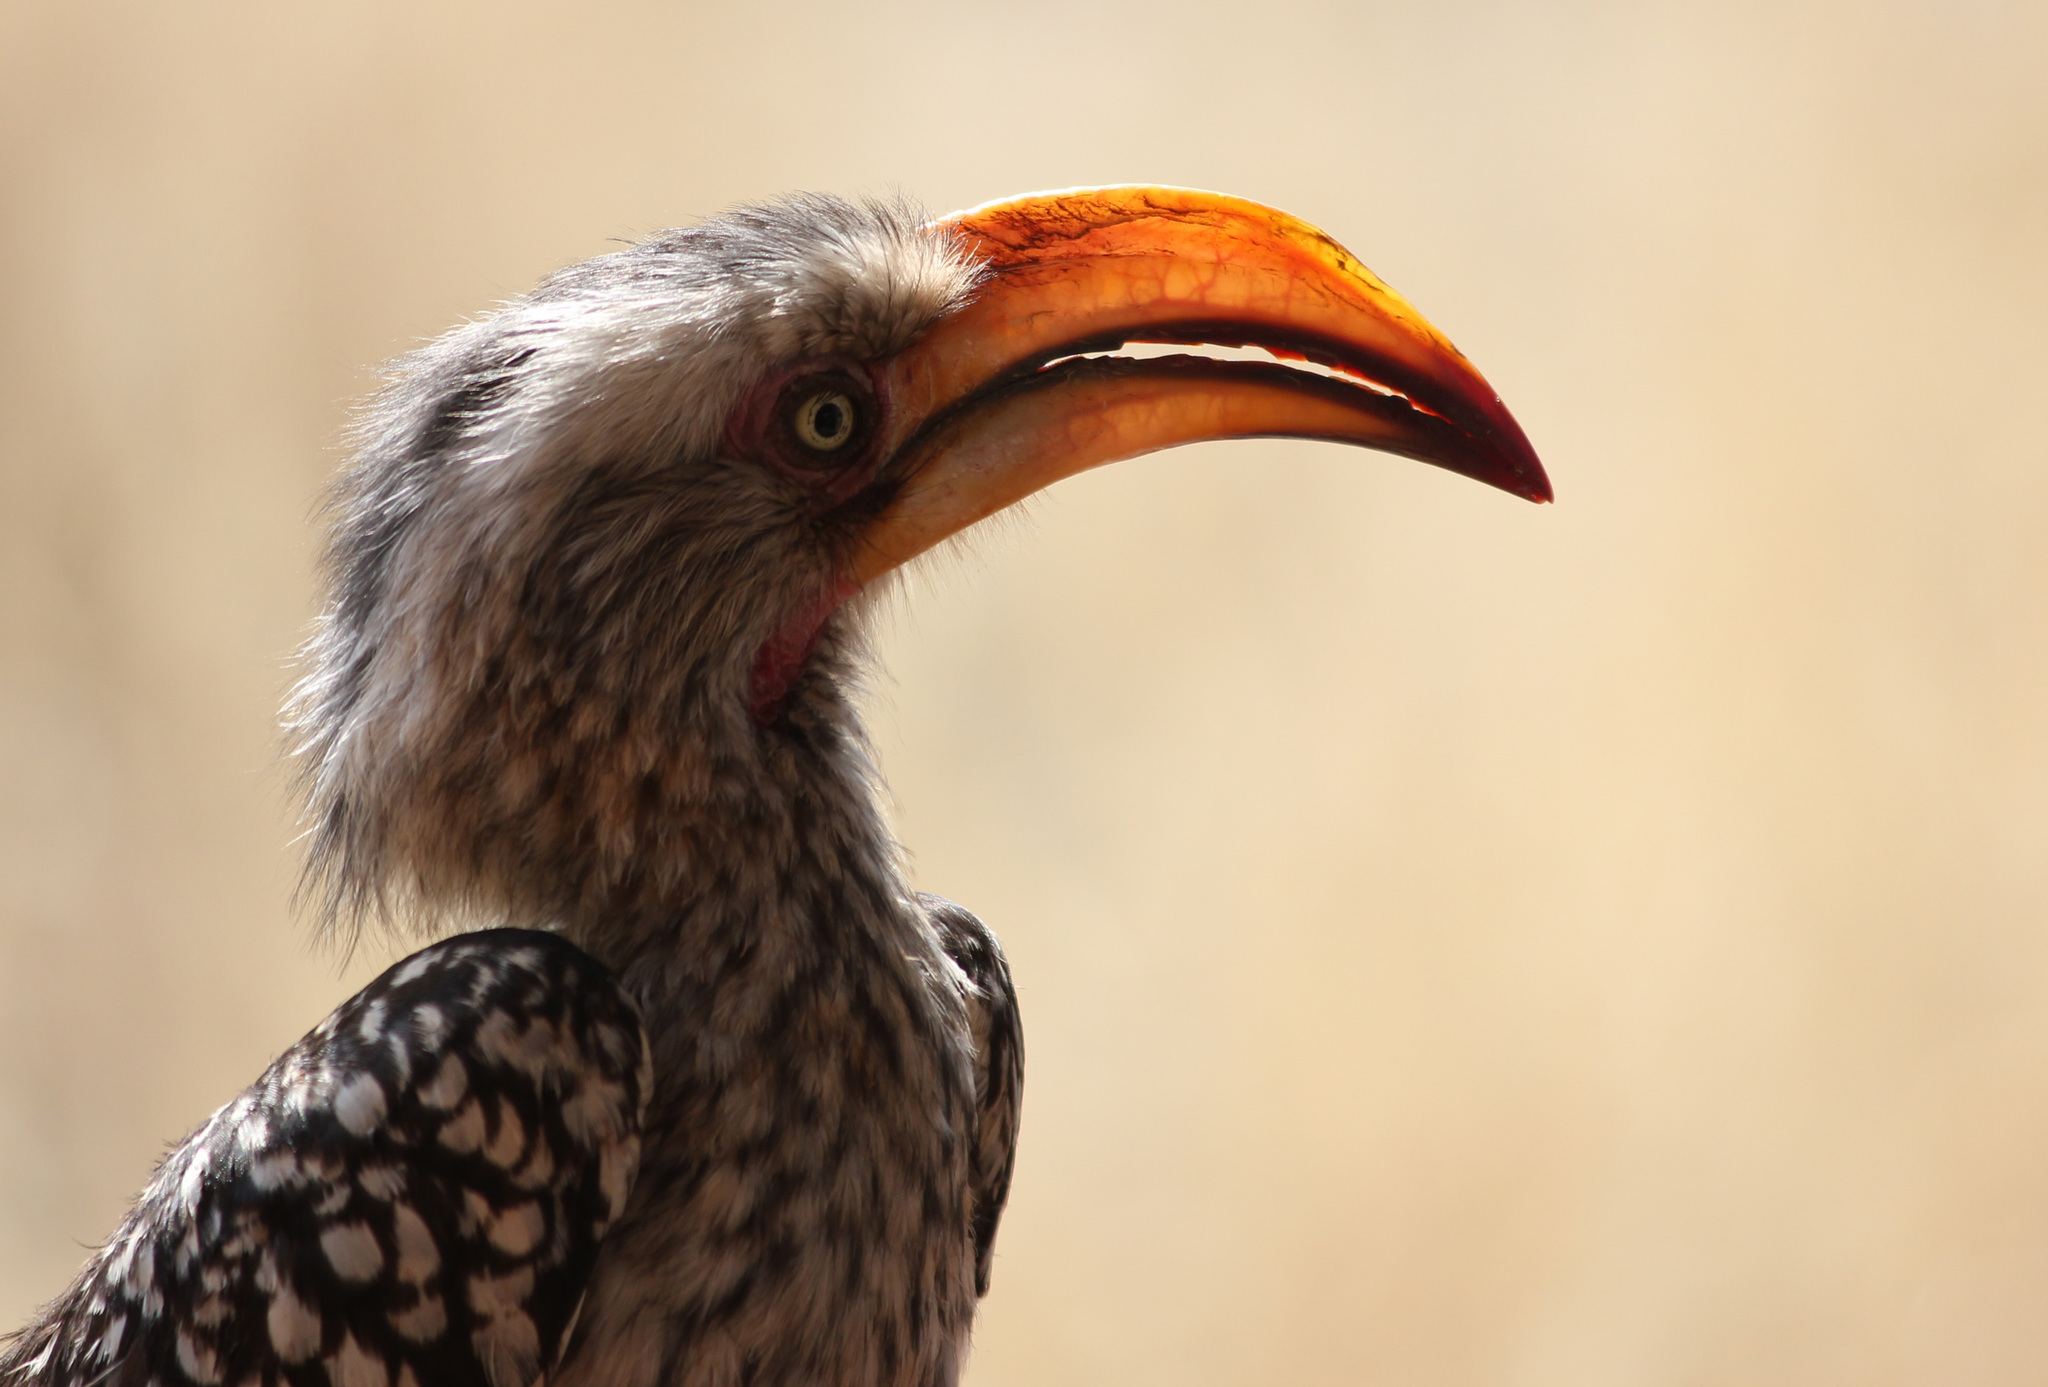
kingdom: Animalia
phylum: Chordata
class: Aves
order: Bucerotiformes
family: Bucerotidae
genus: Tockus
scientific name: Tockus leucomelas
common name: Southern yellow-billed hornbill
